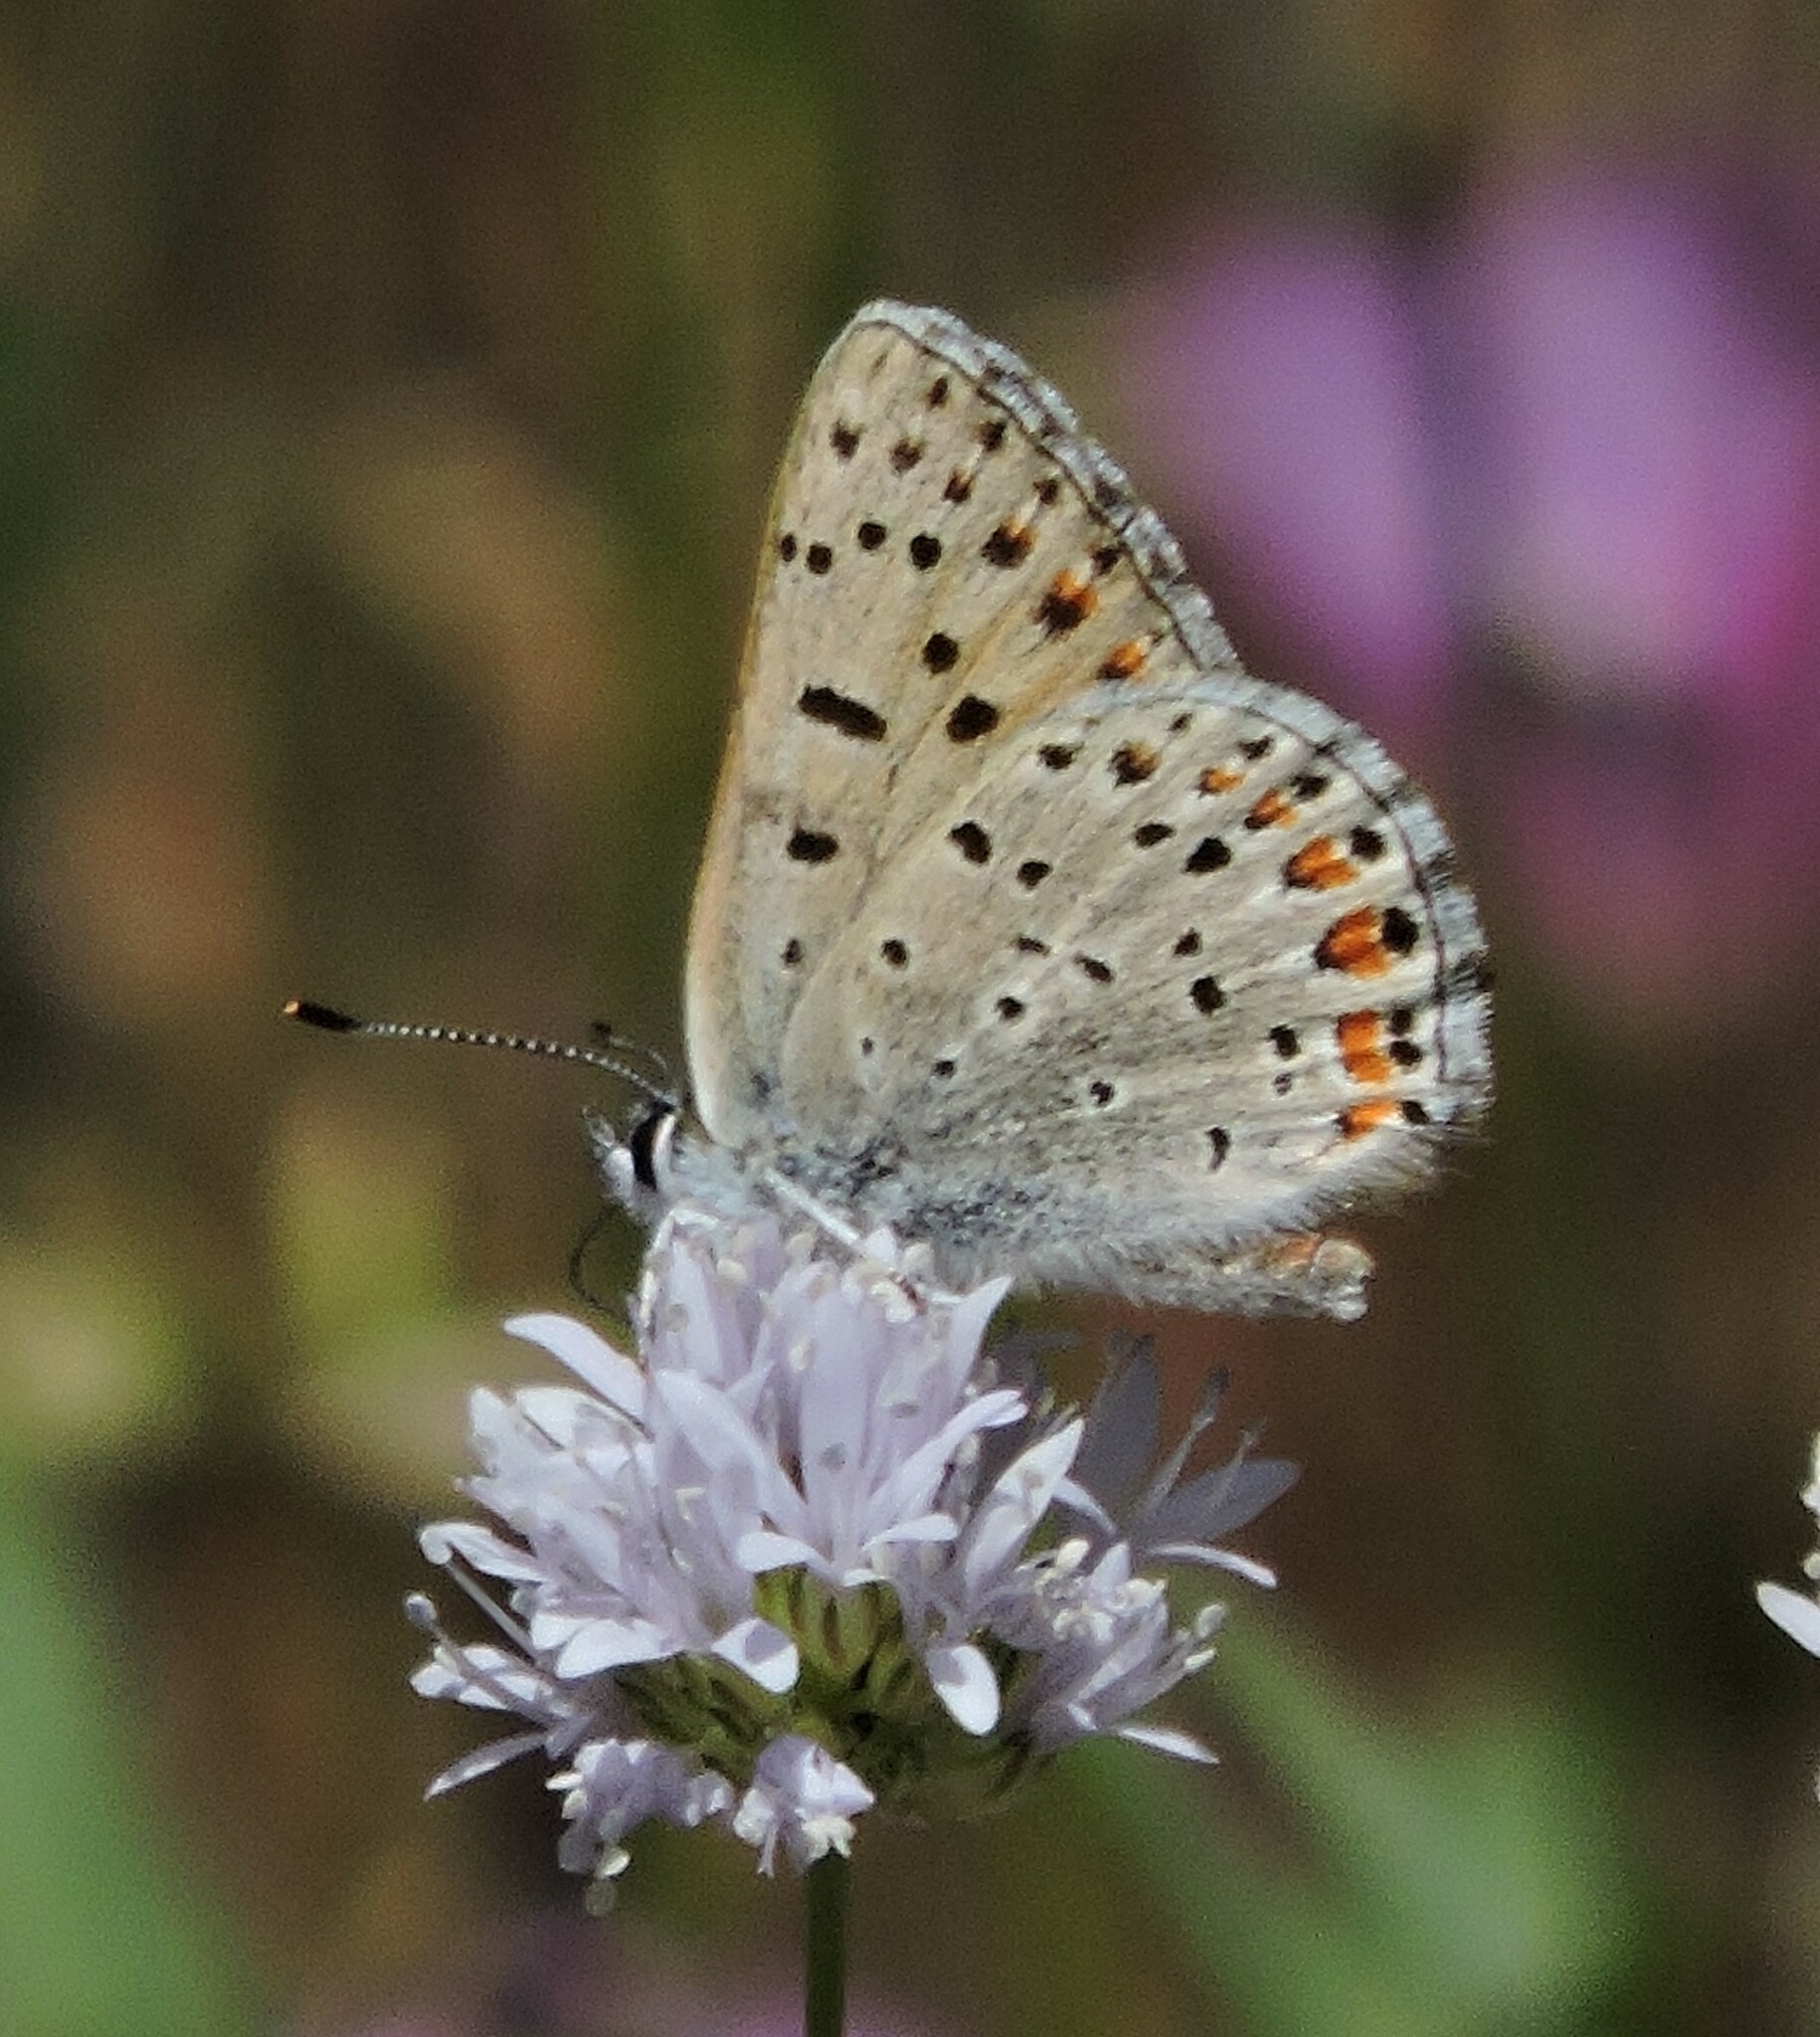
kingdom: Animalia
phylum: Arthropoda
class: Insecta
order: Lepidoptera
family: Lycaenidae
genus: Tharsalea
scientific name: Tharsalea gorgon
